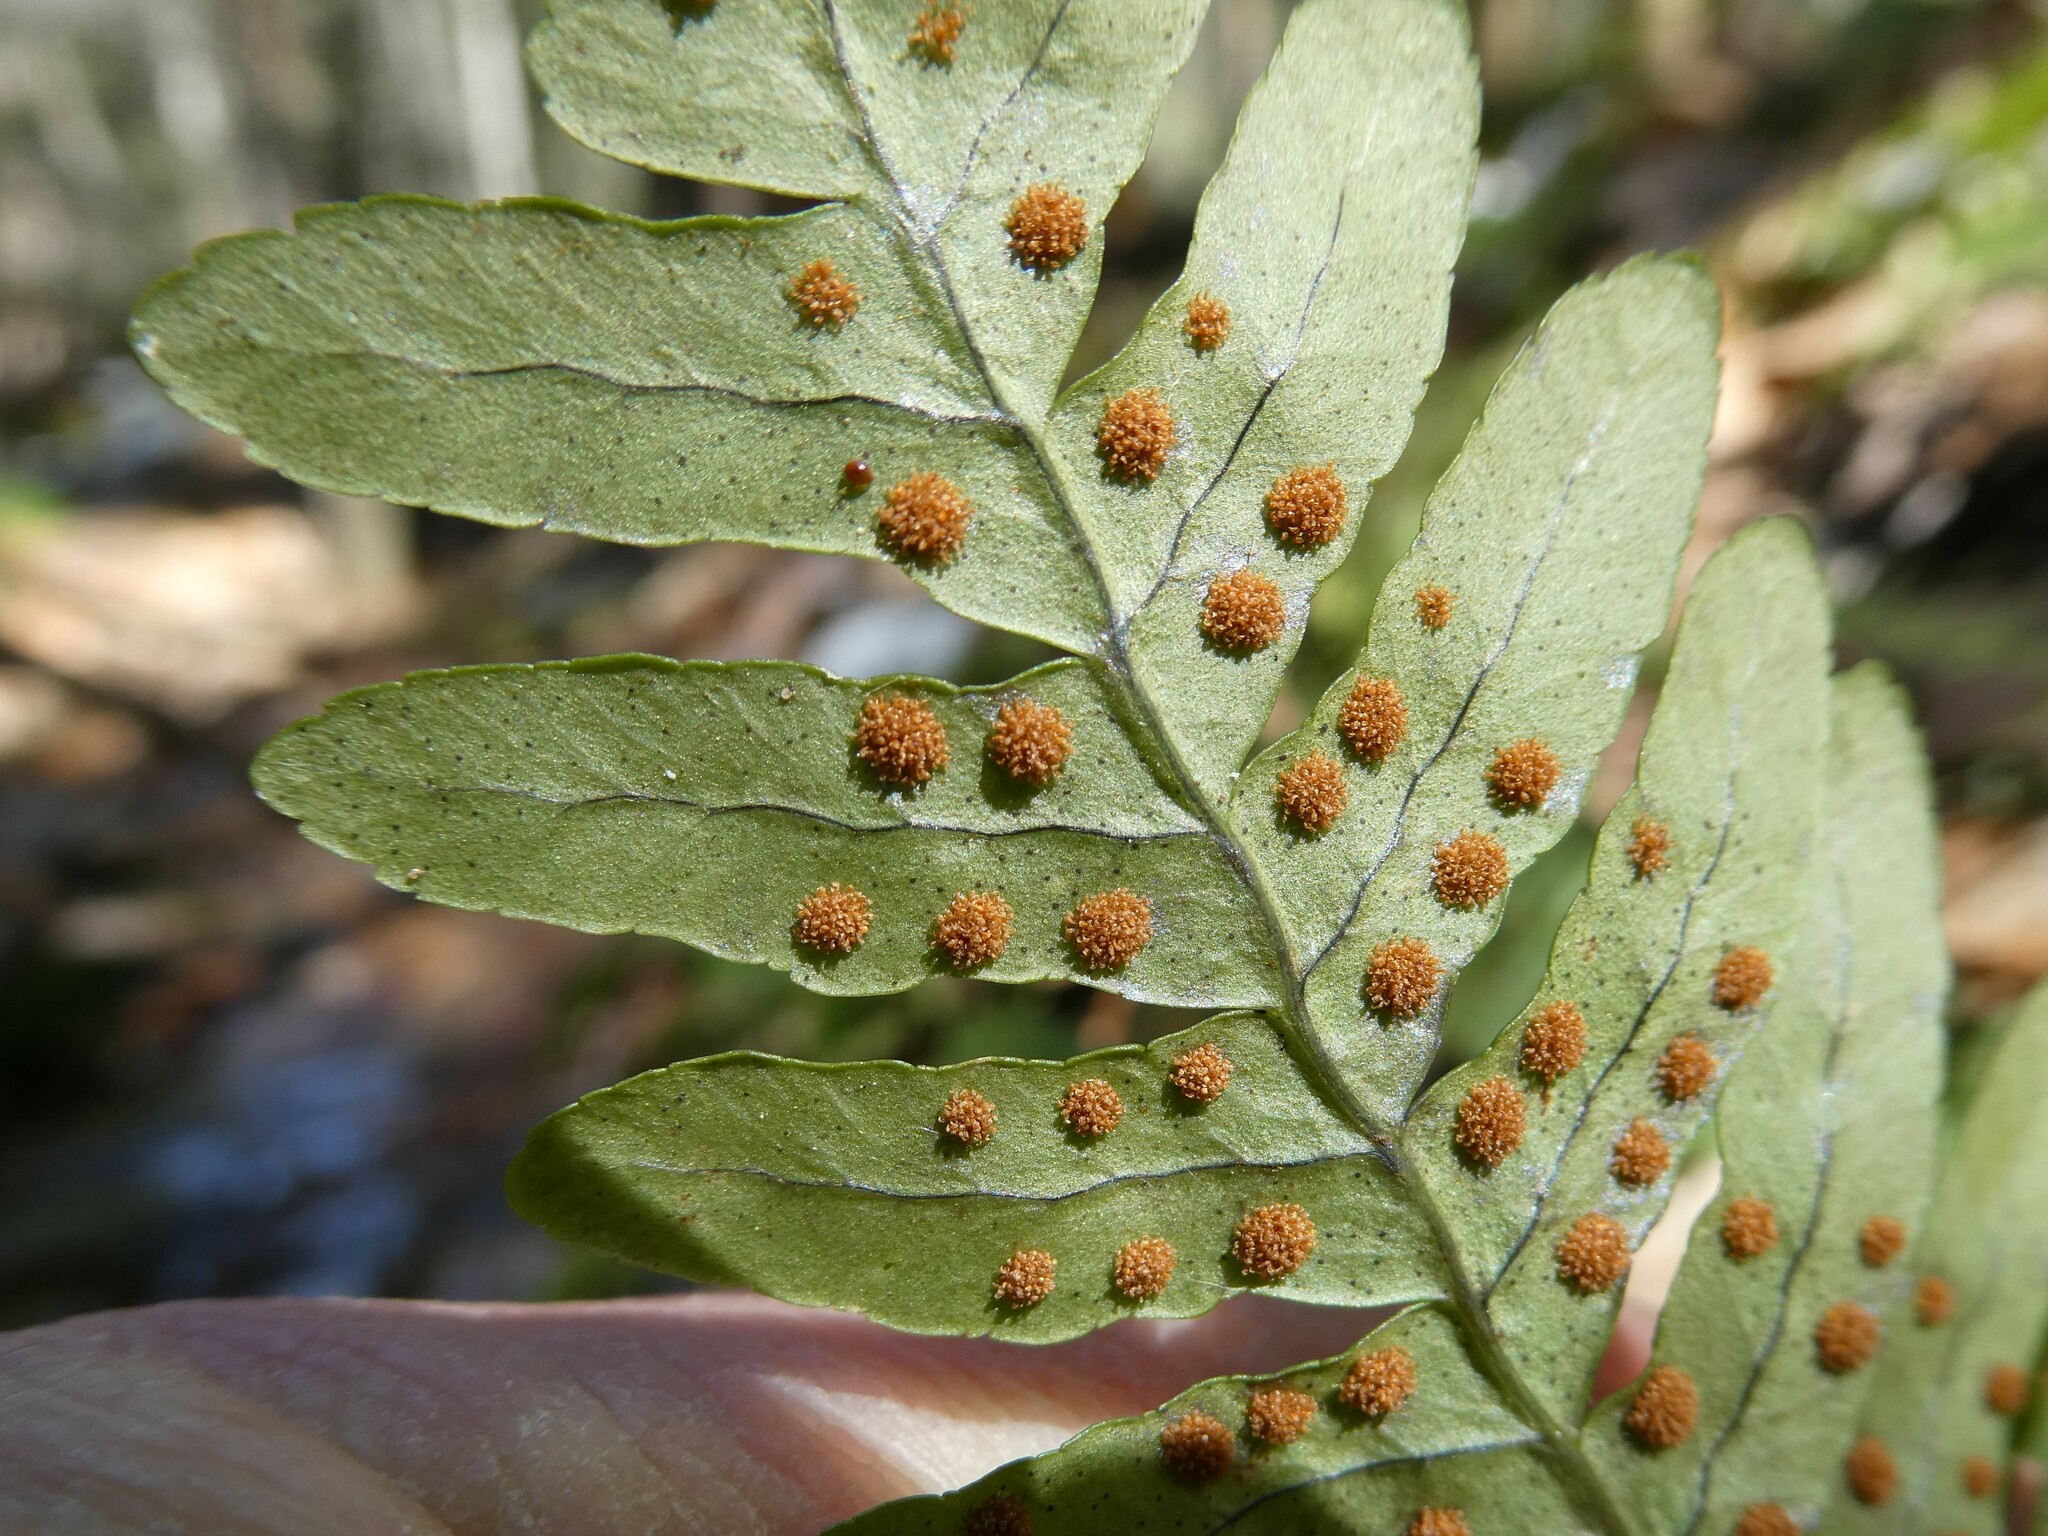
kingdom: Plantae
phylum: Tracheophyta
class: Polypodiopsida
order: Polypodiales
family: Polypodiaceae
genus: Polypodium
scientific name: Polypodium
